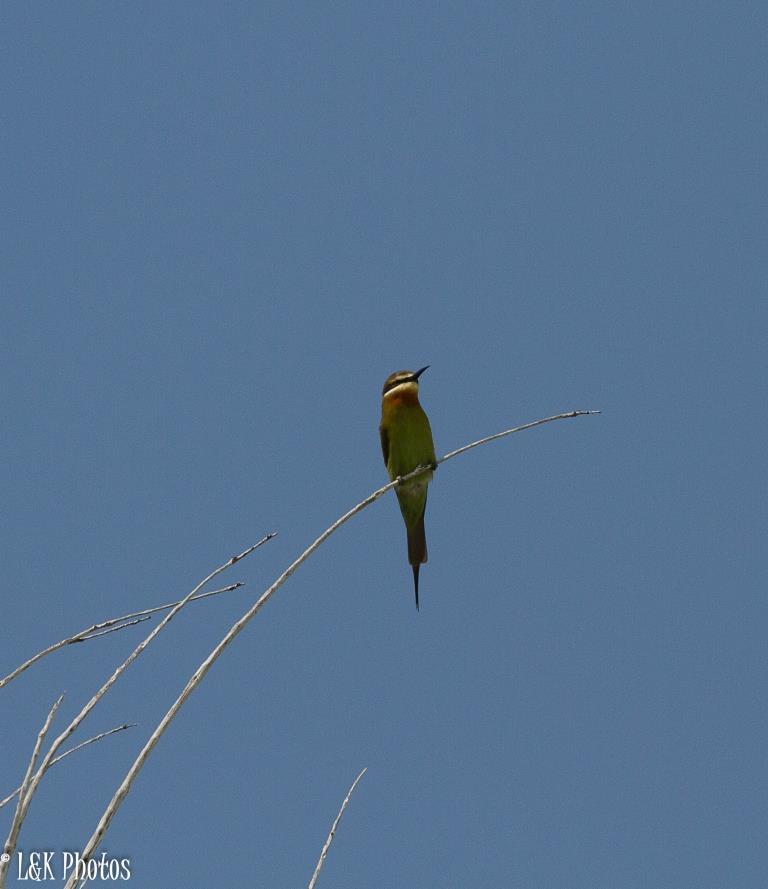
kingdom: Animalia
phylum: Chordata
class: Aves
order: Coraciiformes
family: Meropidae
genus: Merops
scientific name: Merops superciliosus
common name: Olive bee-eater
